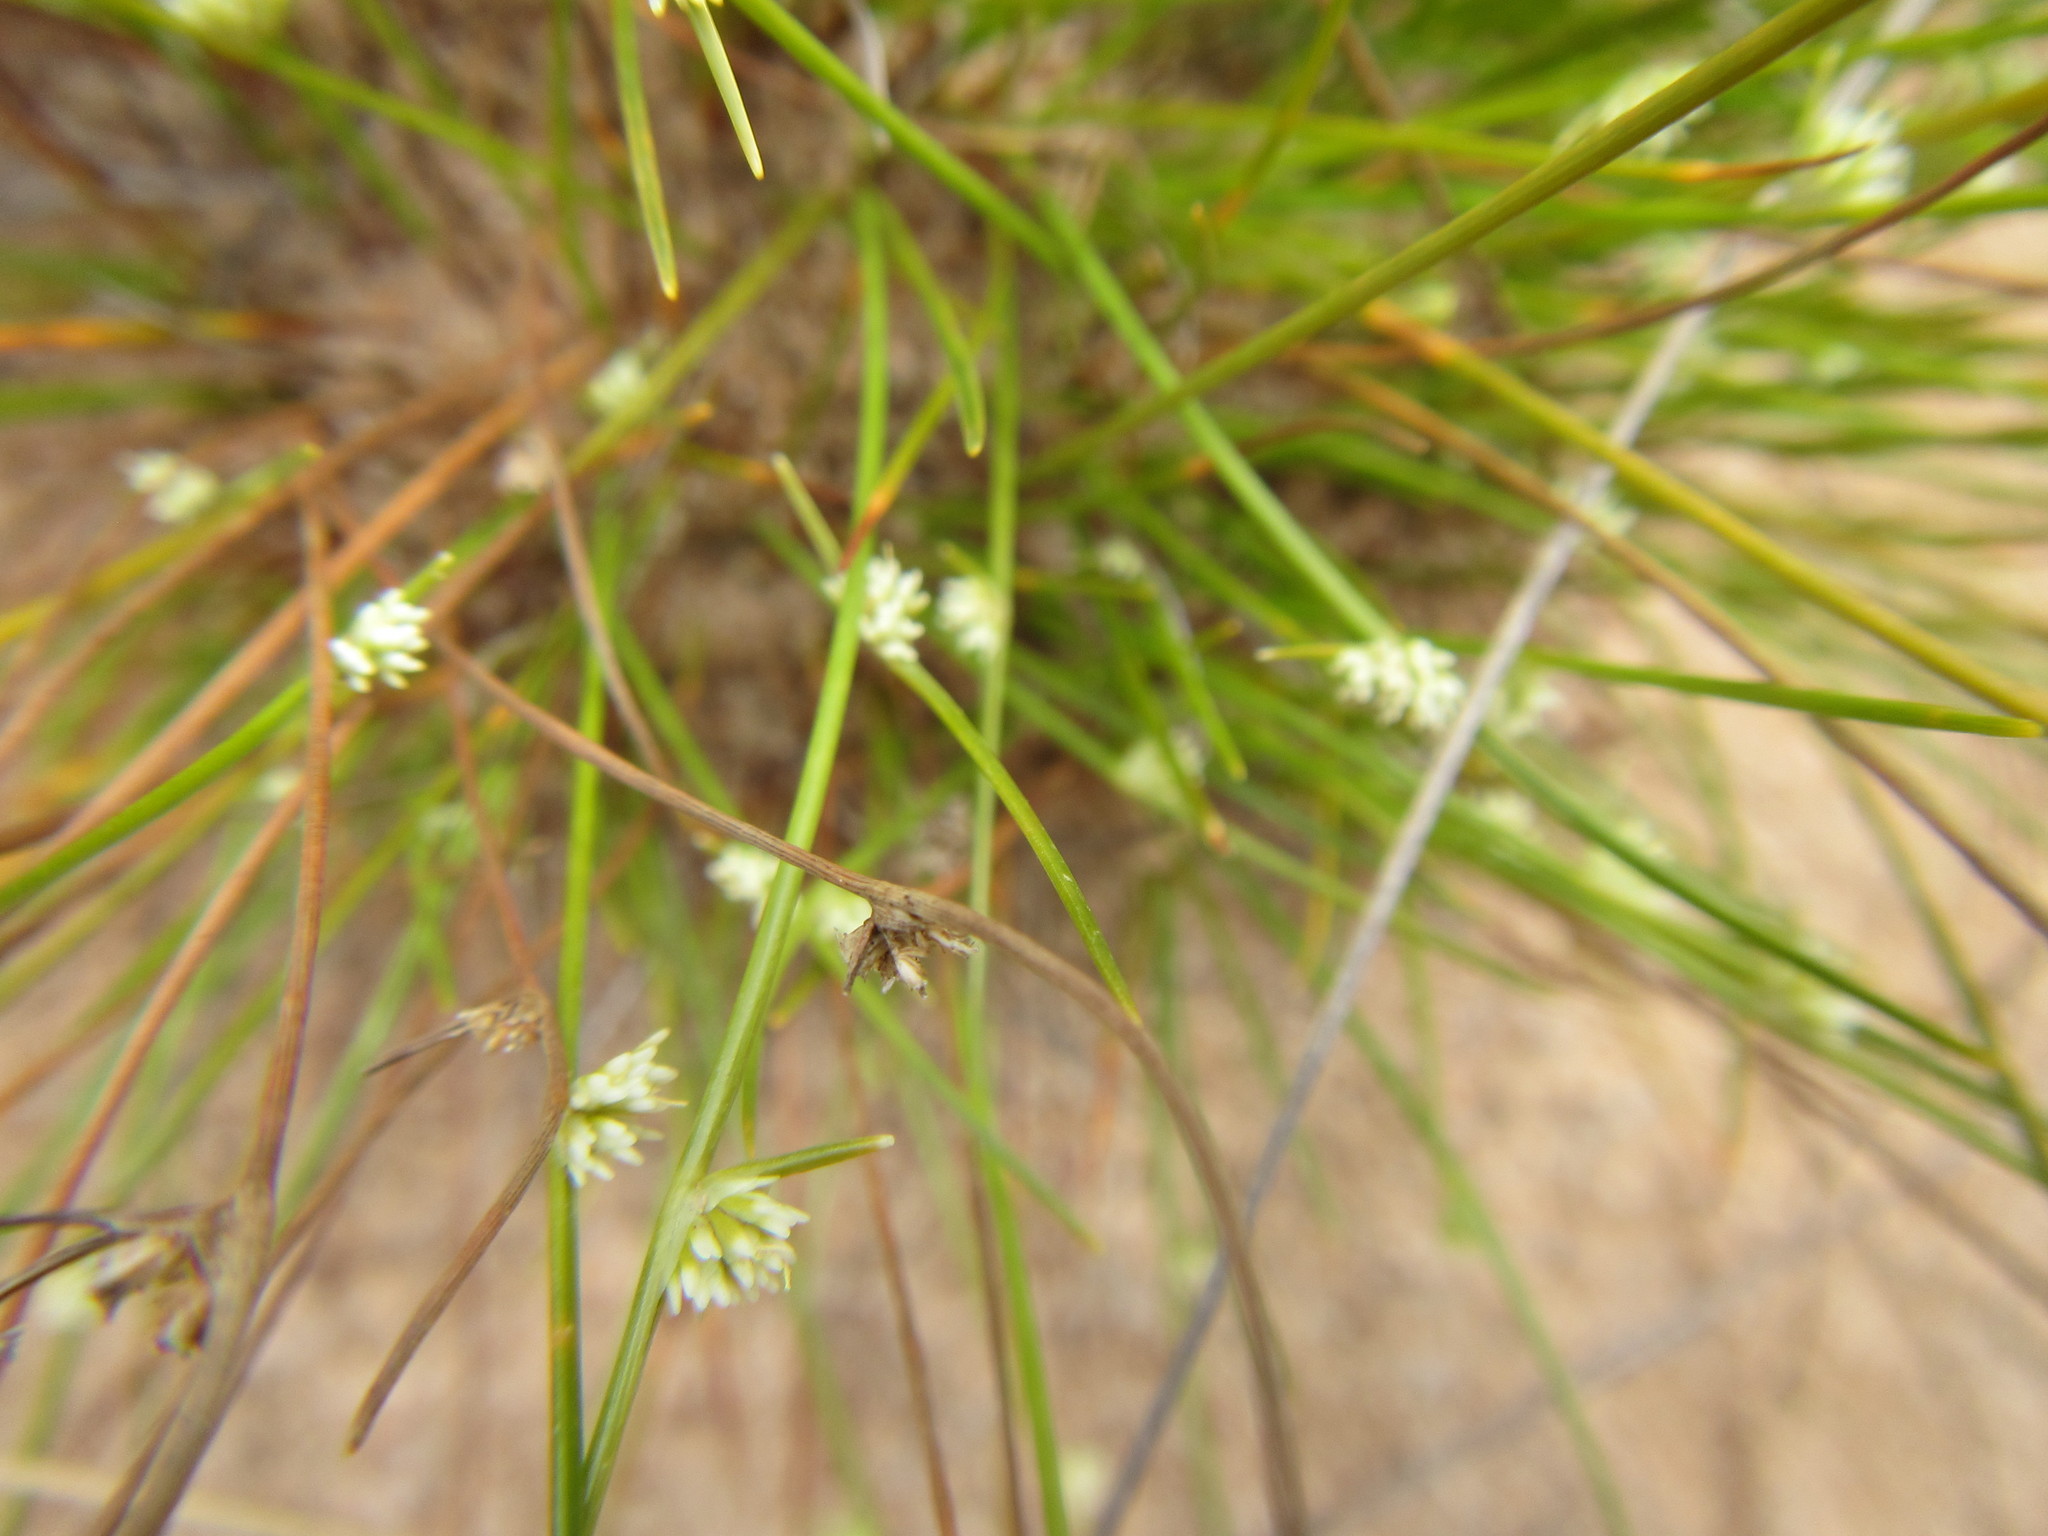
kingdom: Plantae
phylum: Tracheophyta
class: Liliopsida
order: Poales
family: Cyperaceae
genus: Ficinia
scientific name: Ficinia minutiflora
